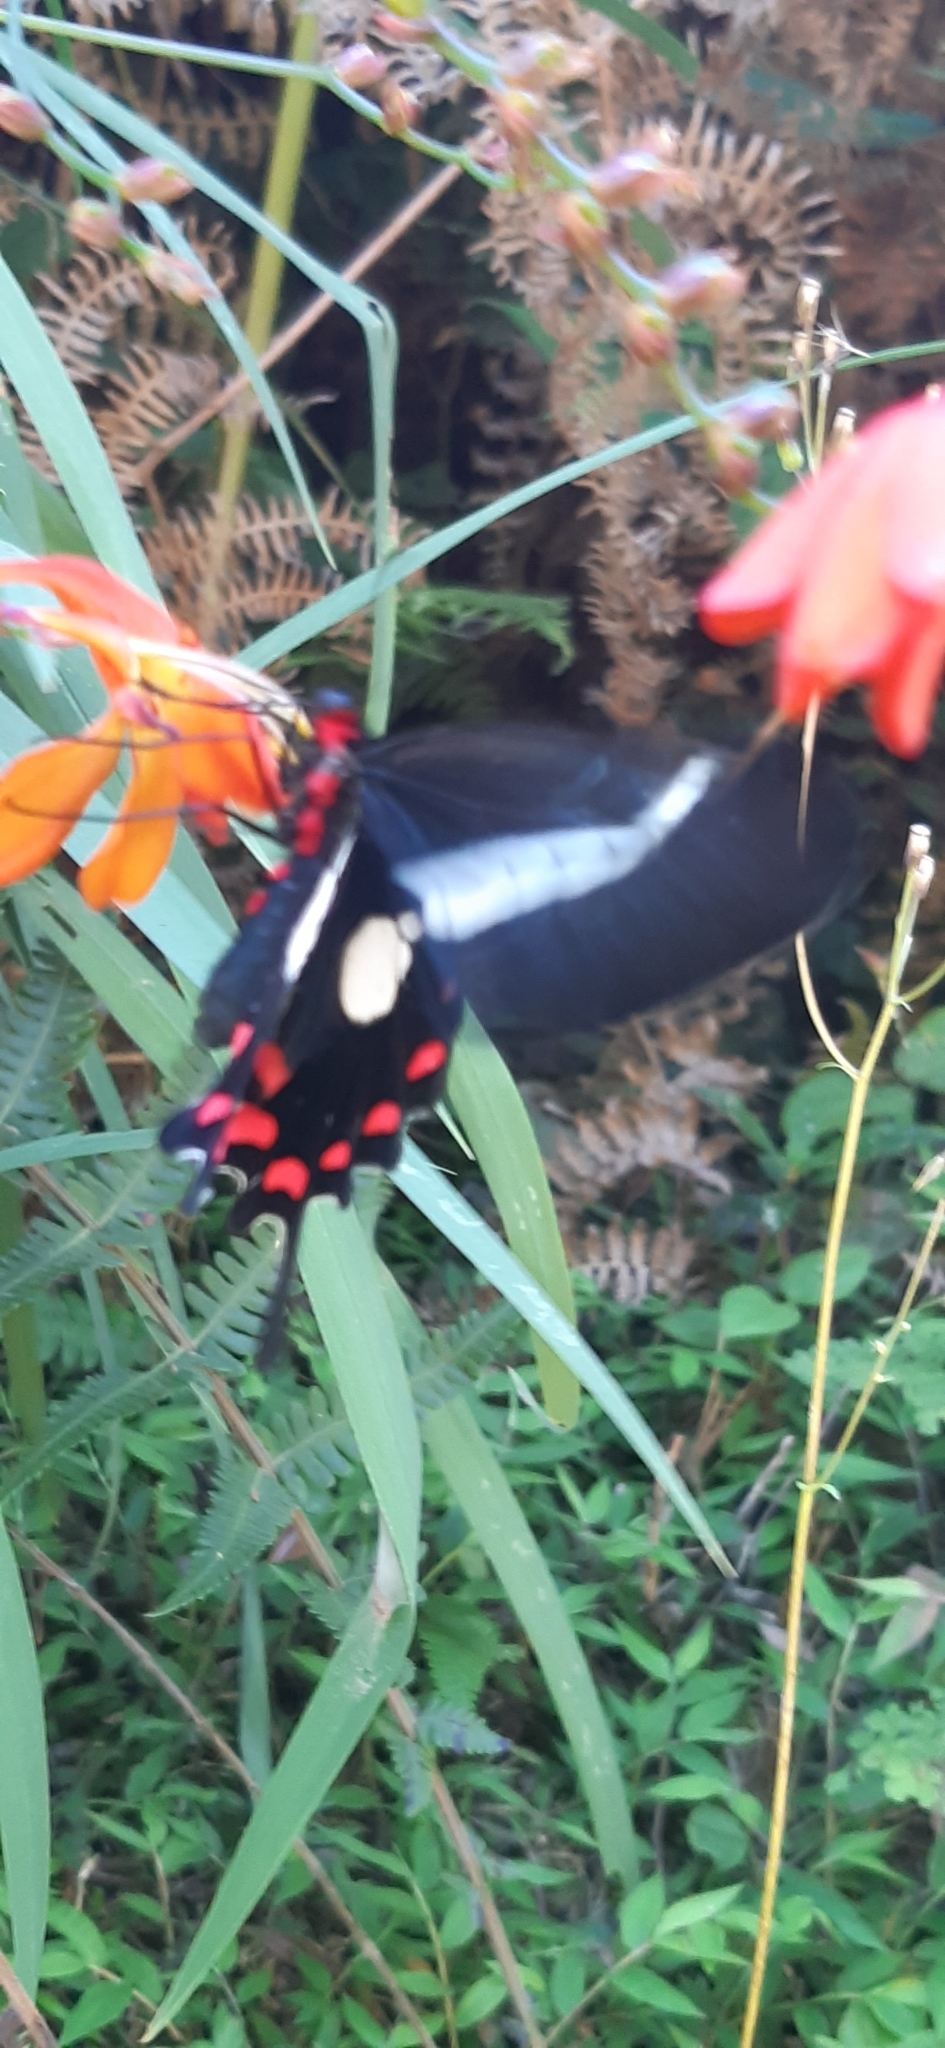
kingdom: Animalia
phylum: Arthropoda
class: Insecta
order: Lepidoptera
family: Papilionidae
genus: Parides
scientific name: Parides agavus
